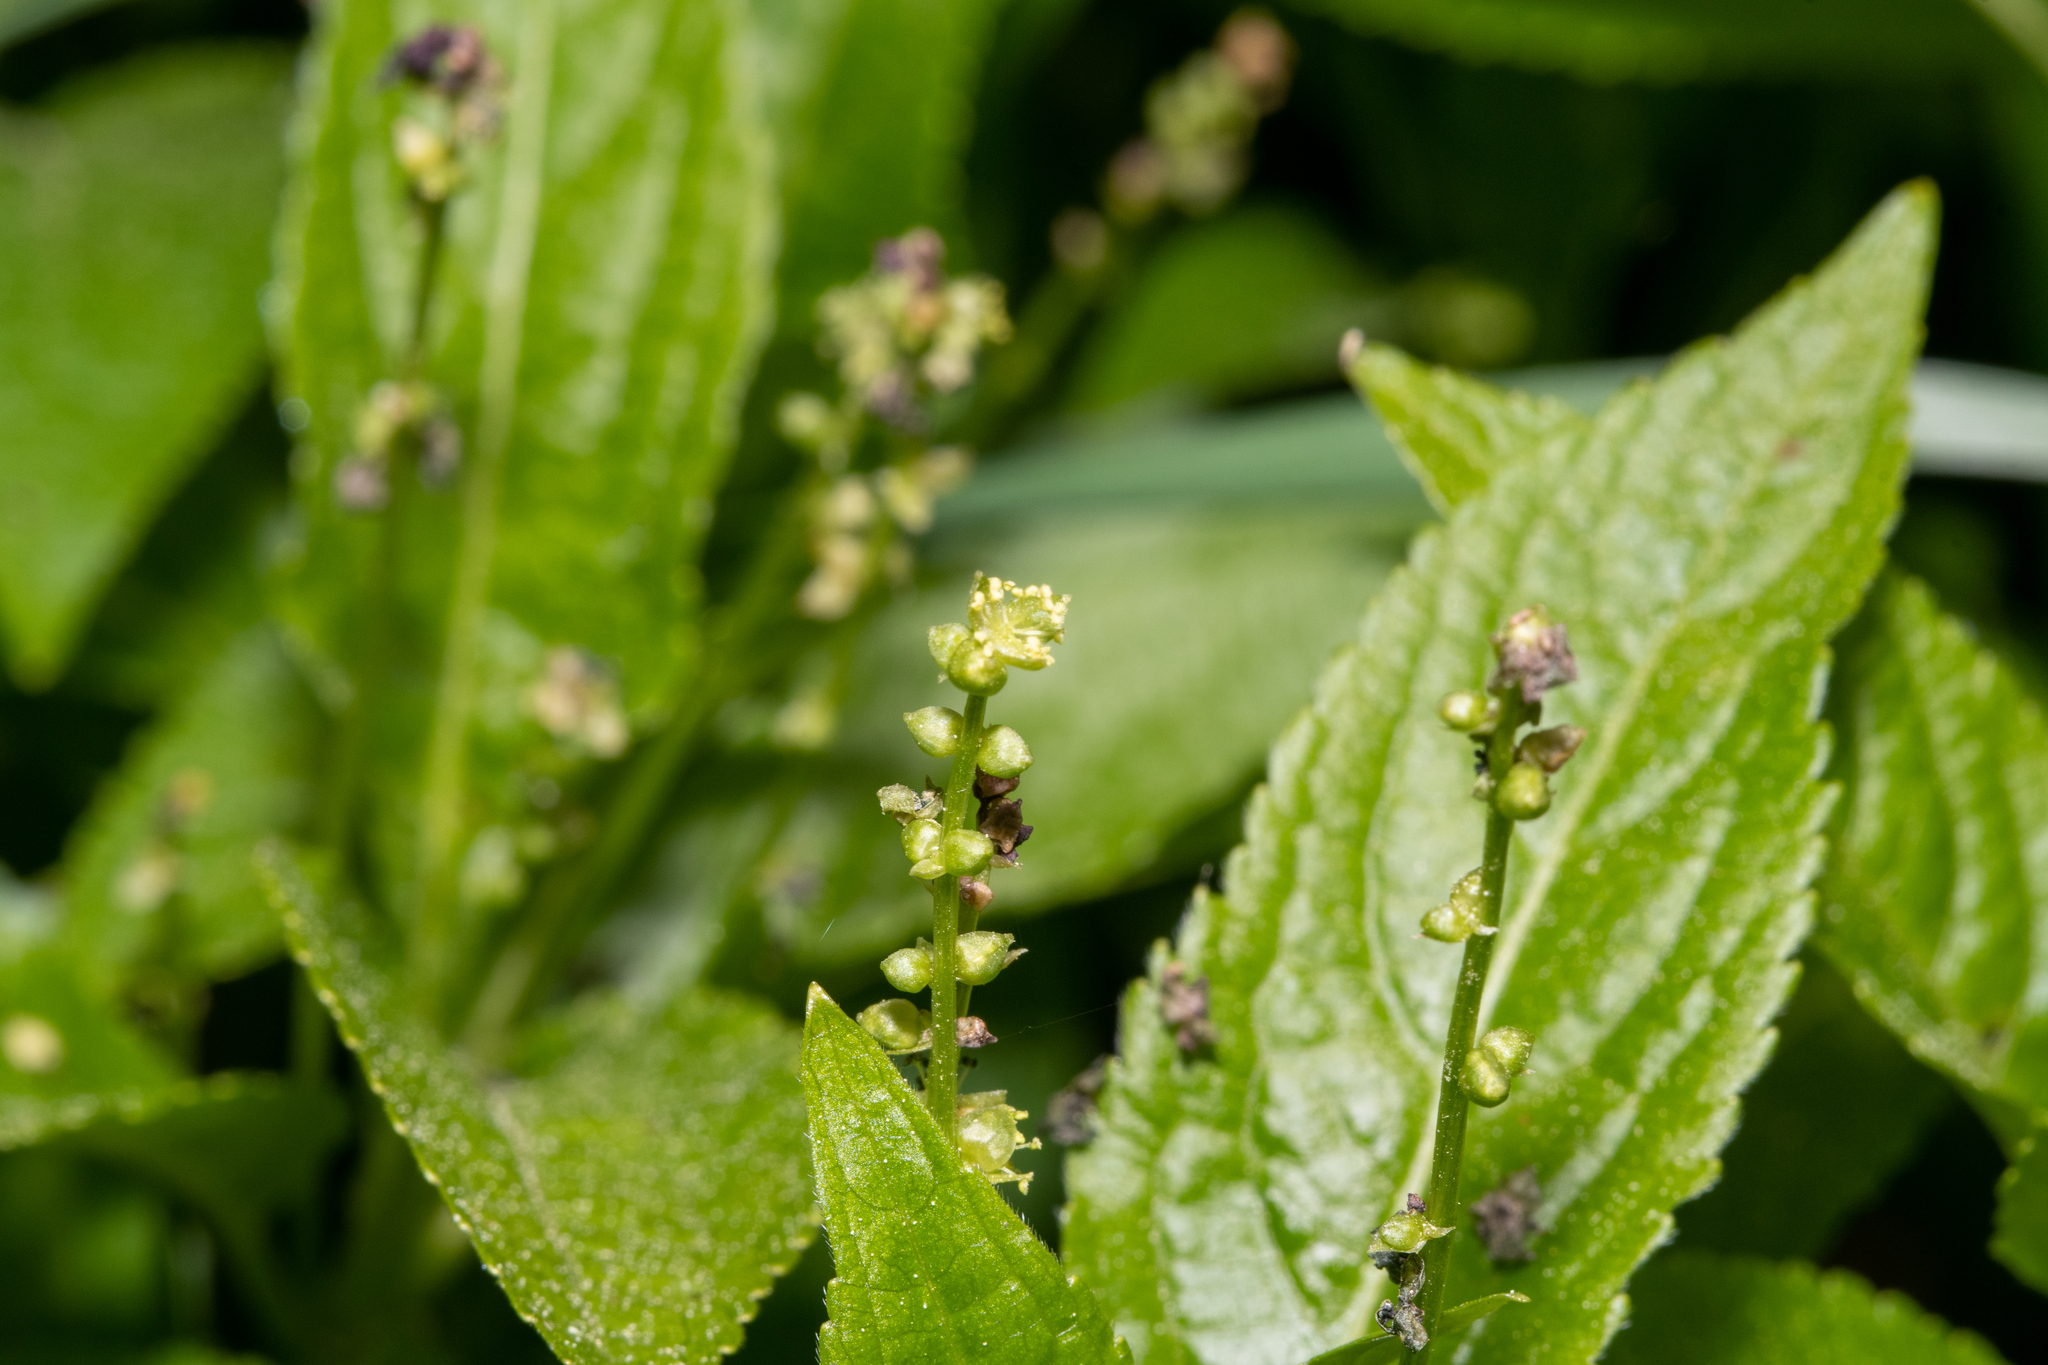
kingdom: Plantae
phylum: Tracheophyta
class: Magnoliopsida
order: Malpighiales
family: Euphorbiaceae
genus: Mercurialis
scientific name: Mercurialis perennis
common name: Dog mercury
